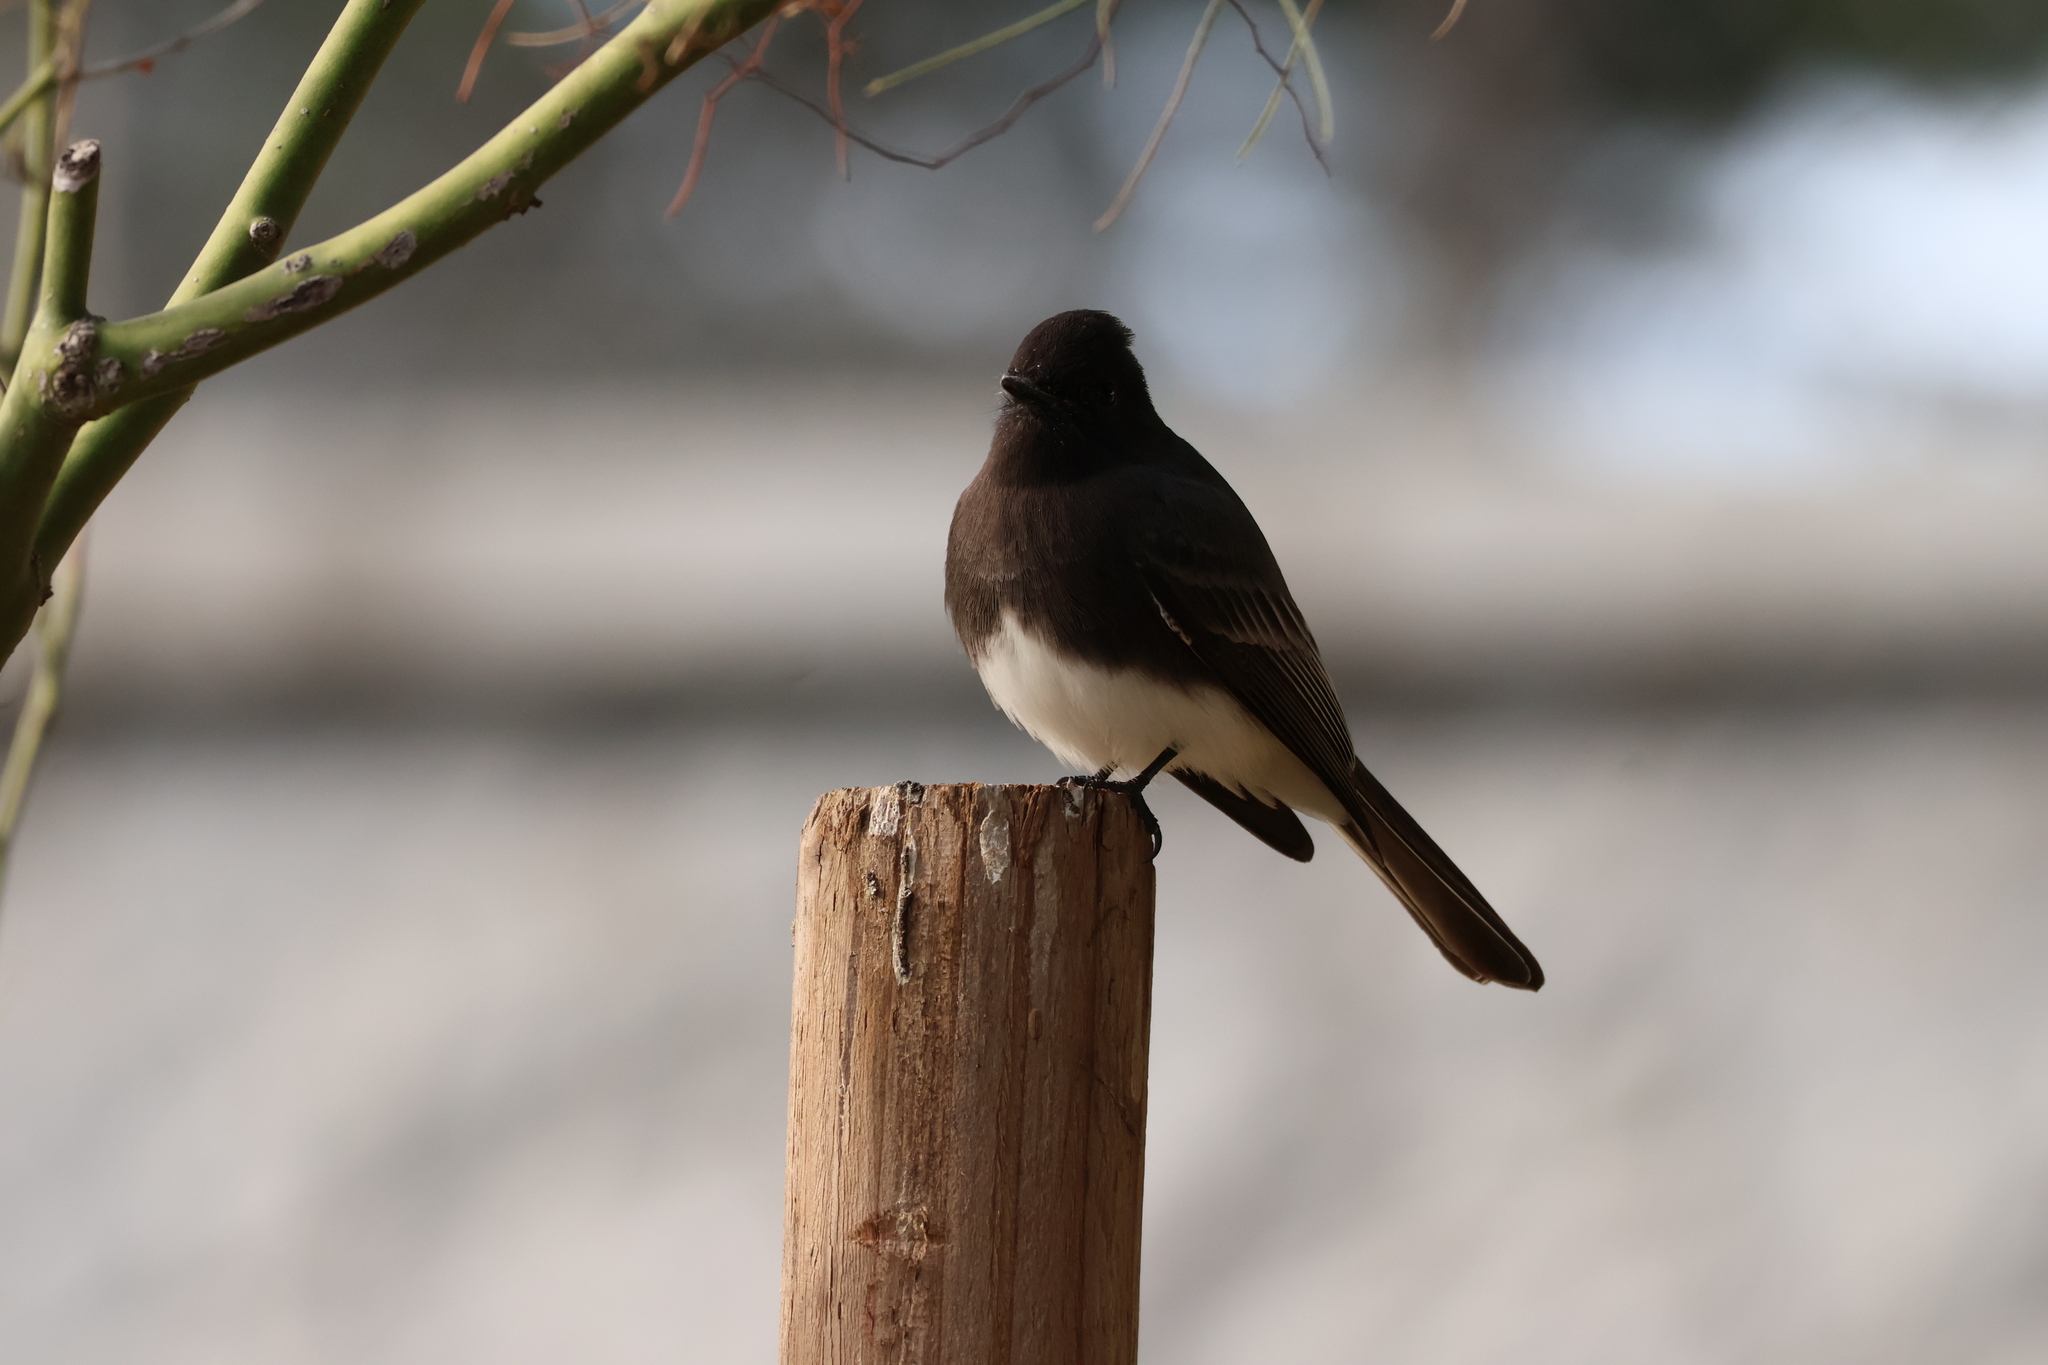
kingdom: Animalia
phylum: Chordata
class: Aves
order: Passeriformes
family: Tyrannidae
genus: Sayornis
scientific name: Sayornis nigricans
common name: Black phoebe
